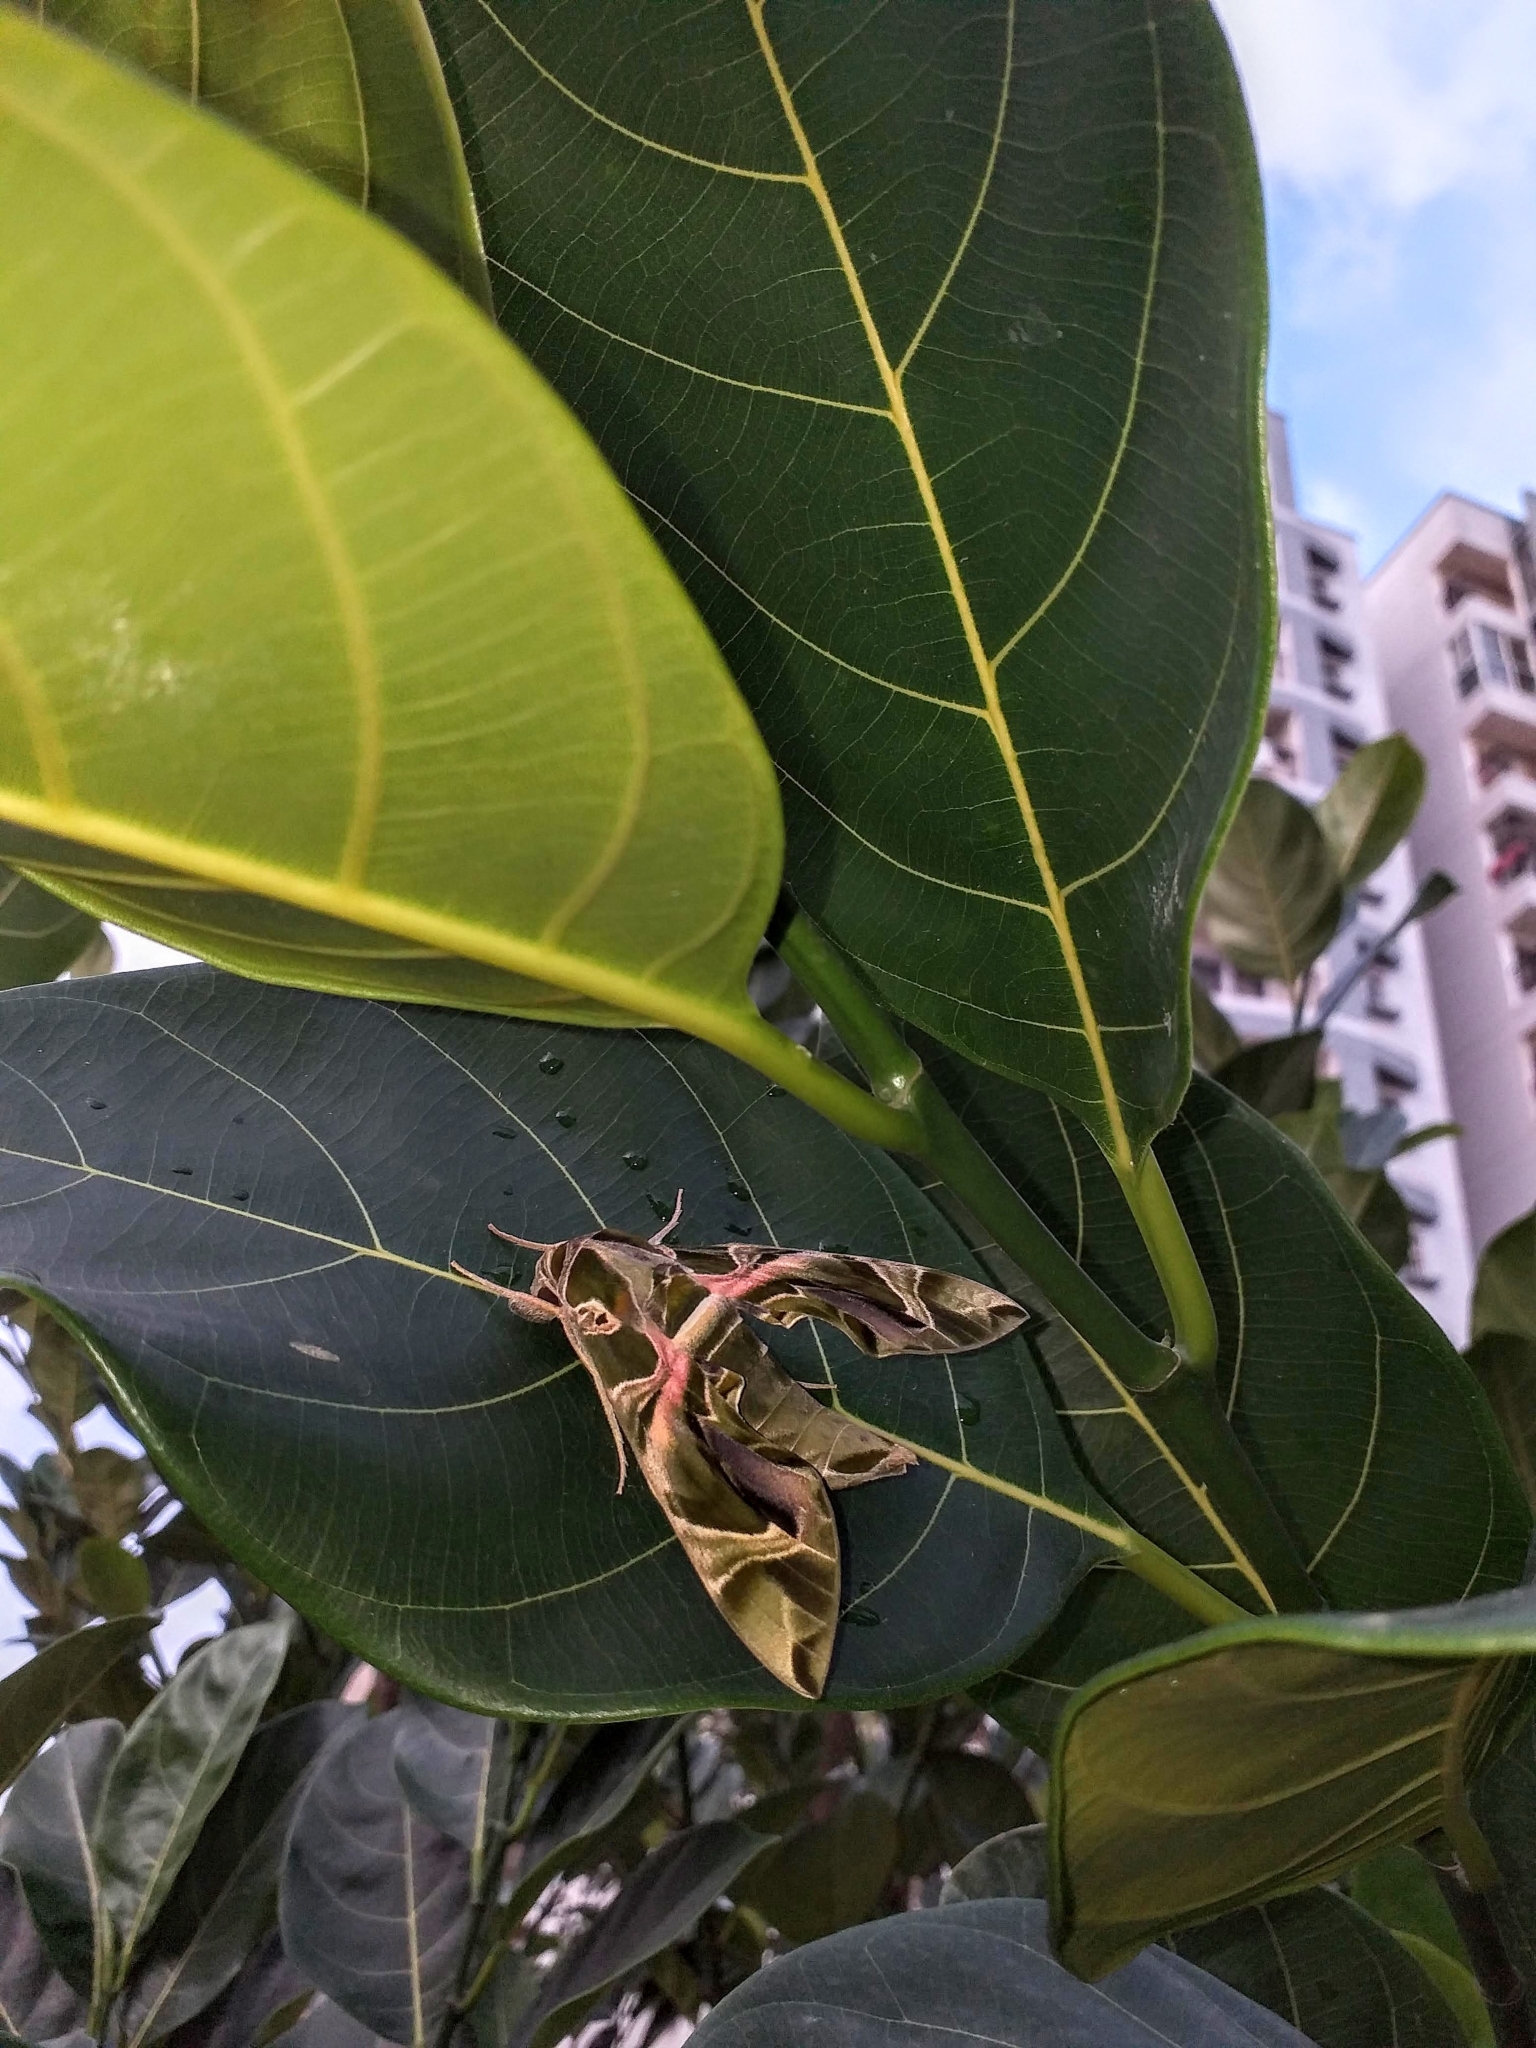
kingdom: Animalia
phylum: Arthropoda
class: Insecta
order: Lepidoptera
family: Sphingidae
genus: Daphnis
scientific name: Daphnis nerii
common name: Oleander hawk-moth
